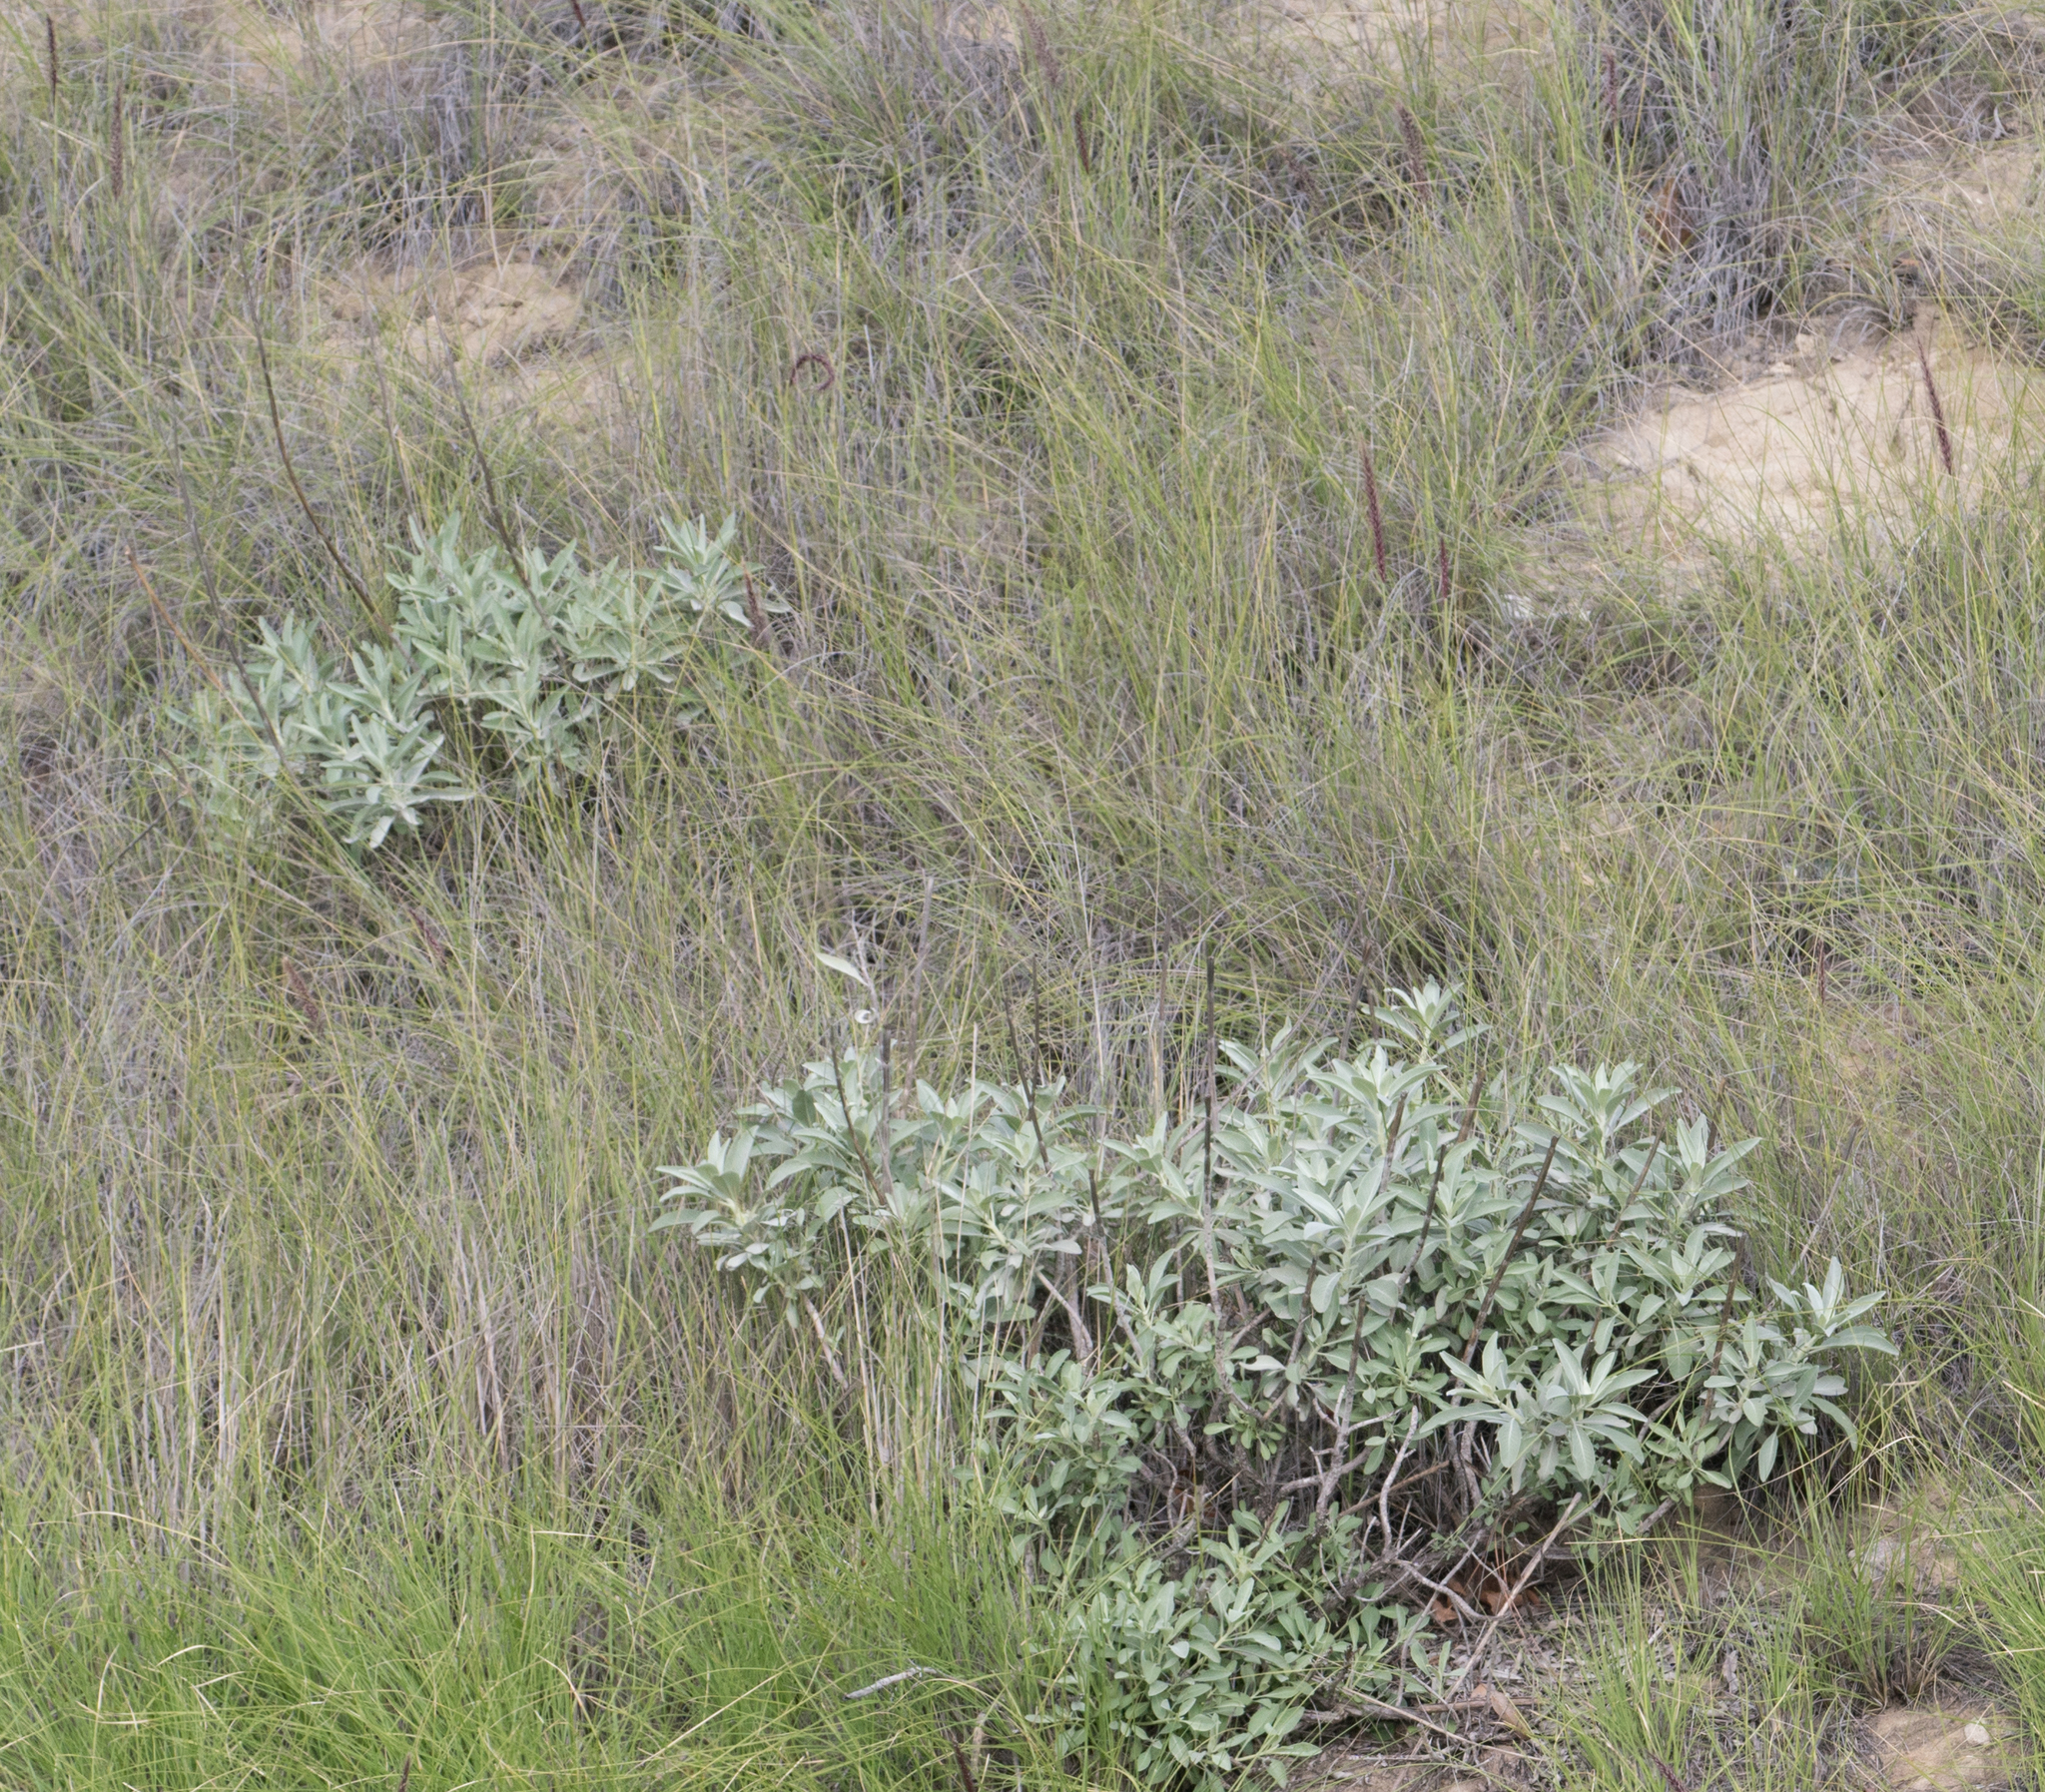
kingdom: Plantae
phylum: Tracheophyta
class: Magnoliopsida
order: Lamiales
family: Lamiaceae
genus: Salvia
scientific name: Salvia apiana
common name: White sage
